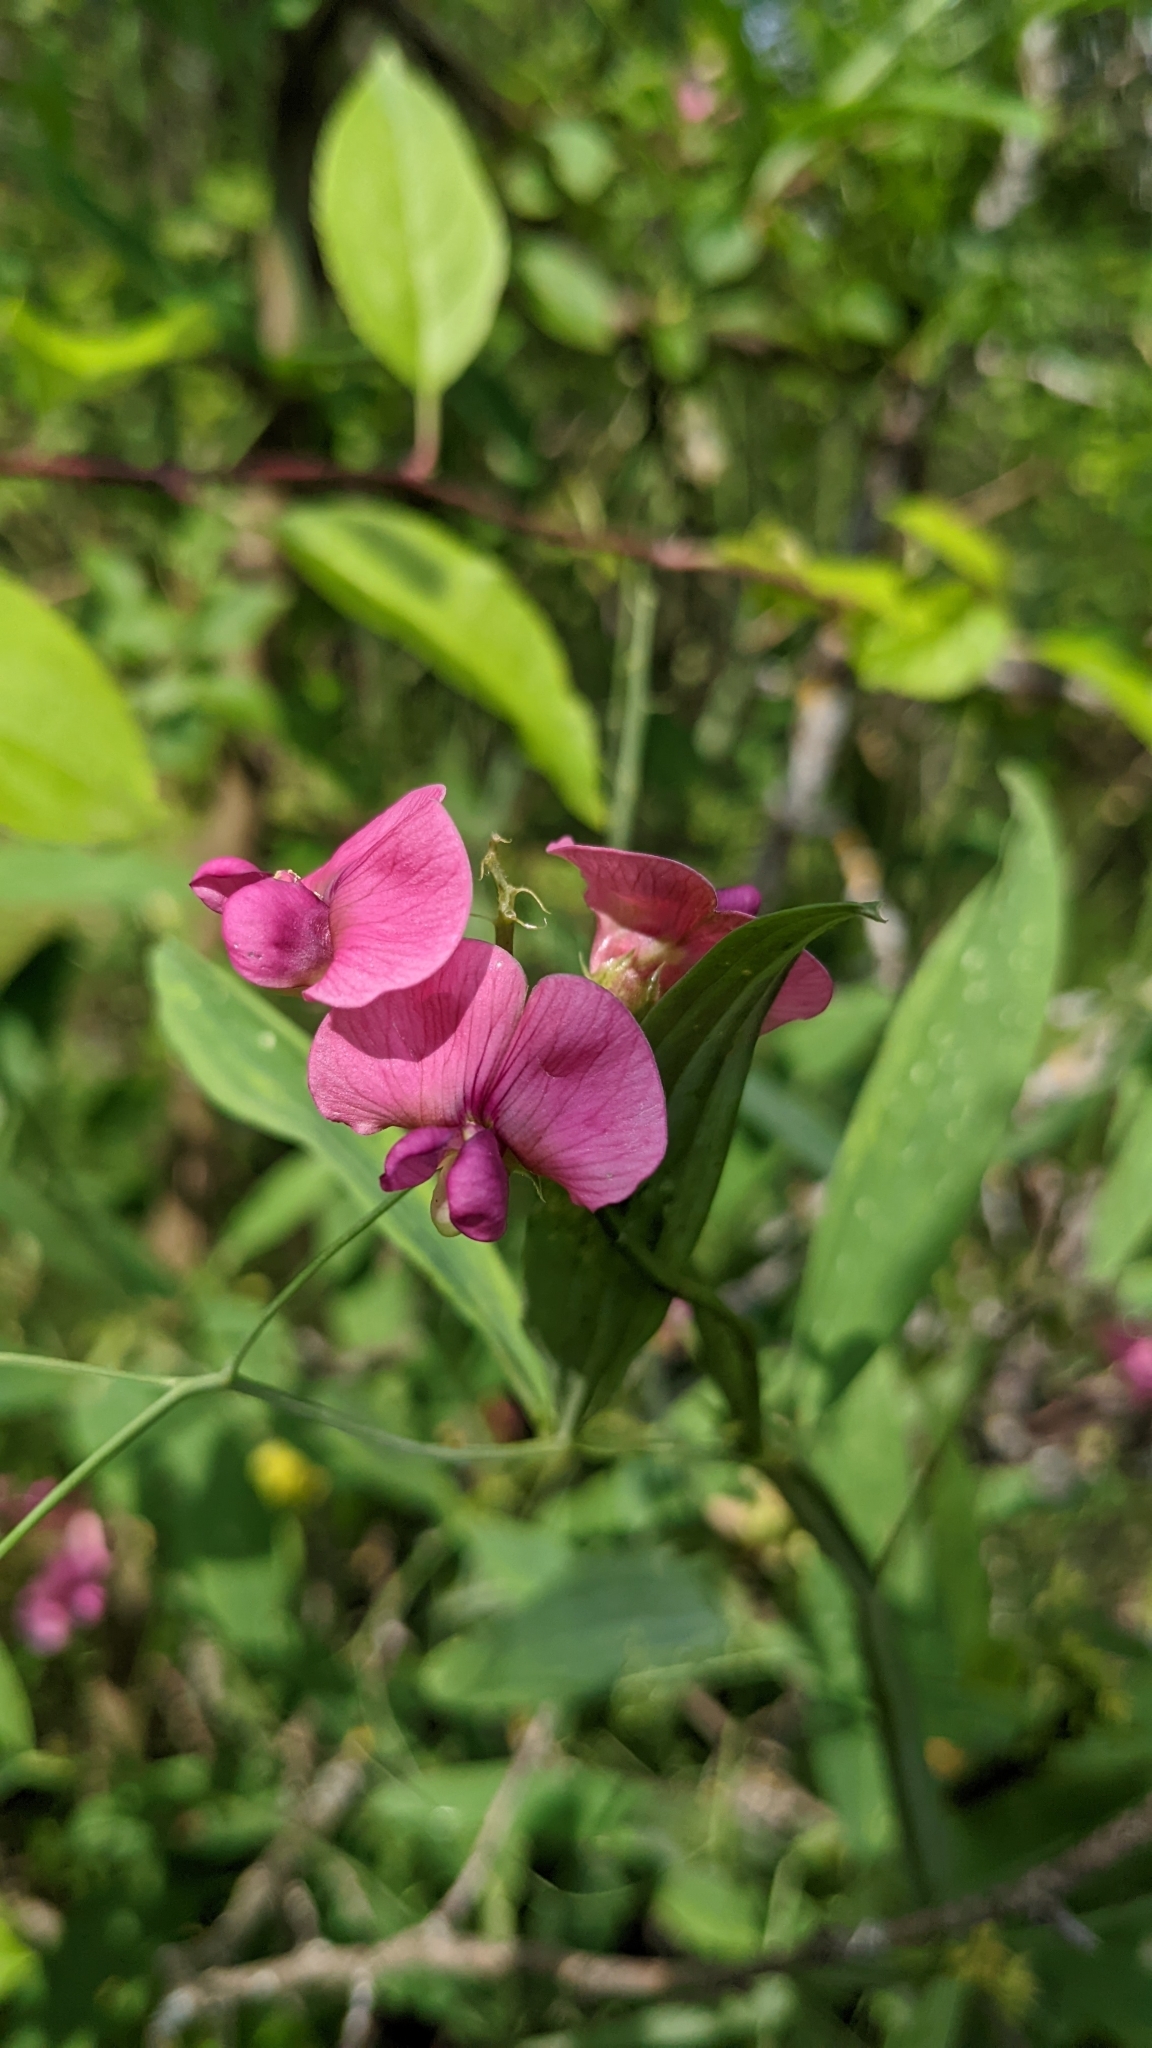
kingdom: Plantae
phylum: Tracheophyta
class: Magnoliopsida
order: Fabales
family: Fabaceae
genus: Lathyrus
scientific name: Lathyrus sylvestris
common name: Flat pea
